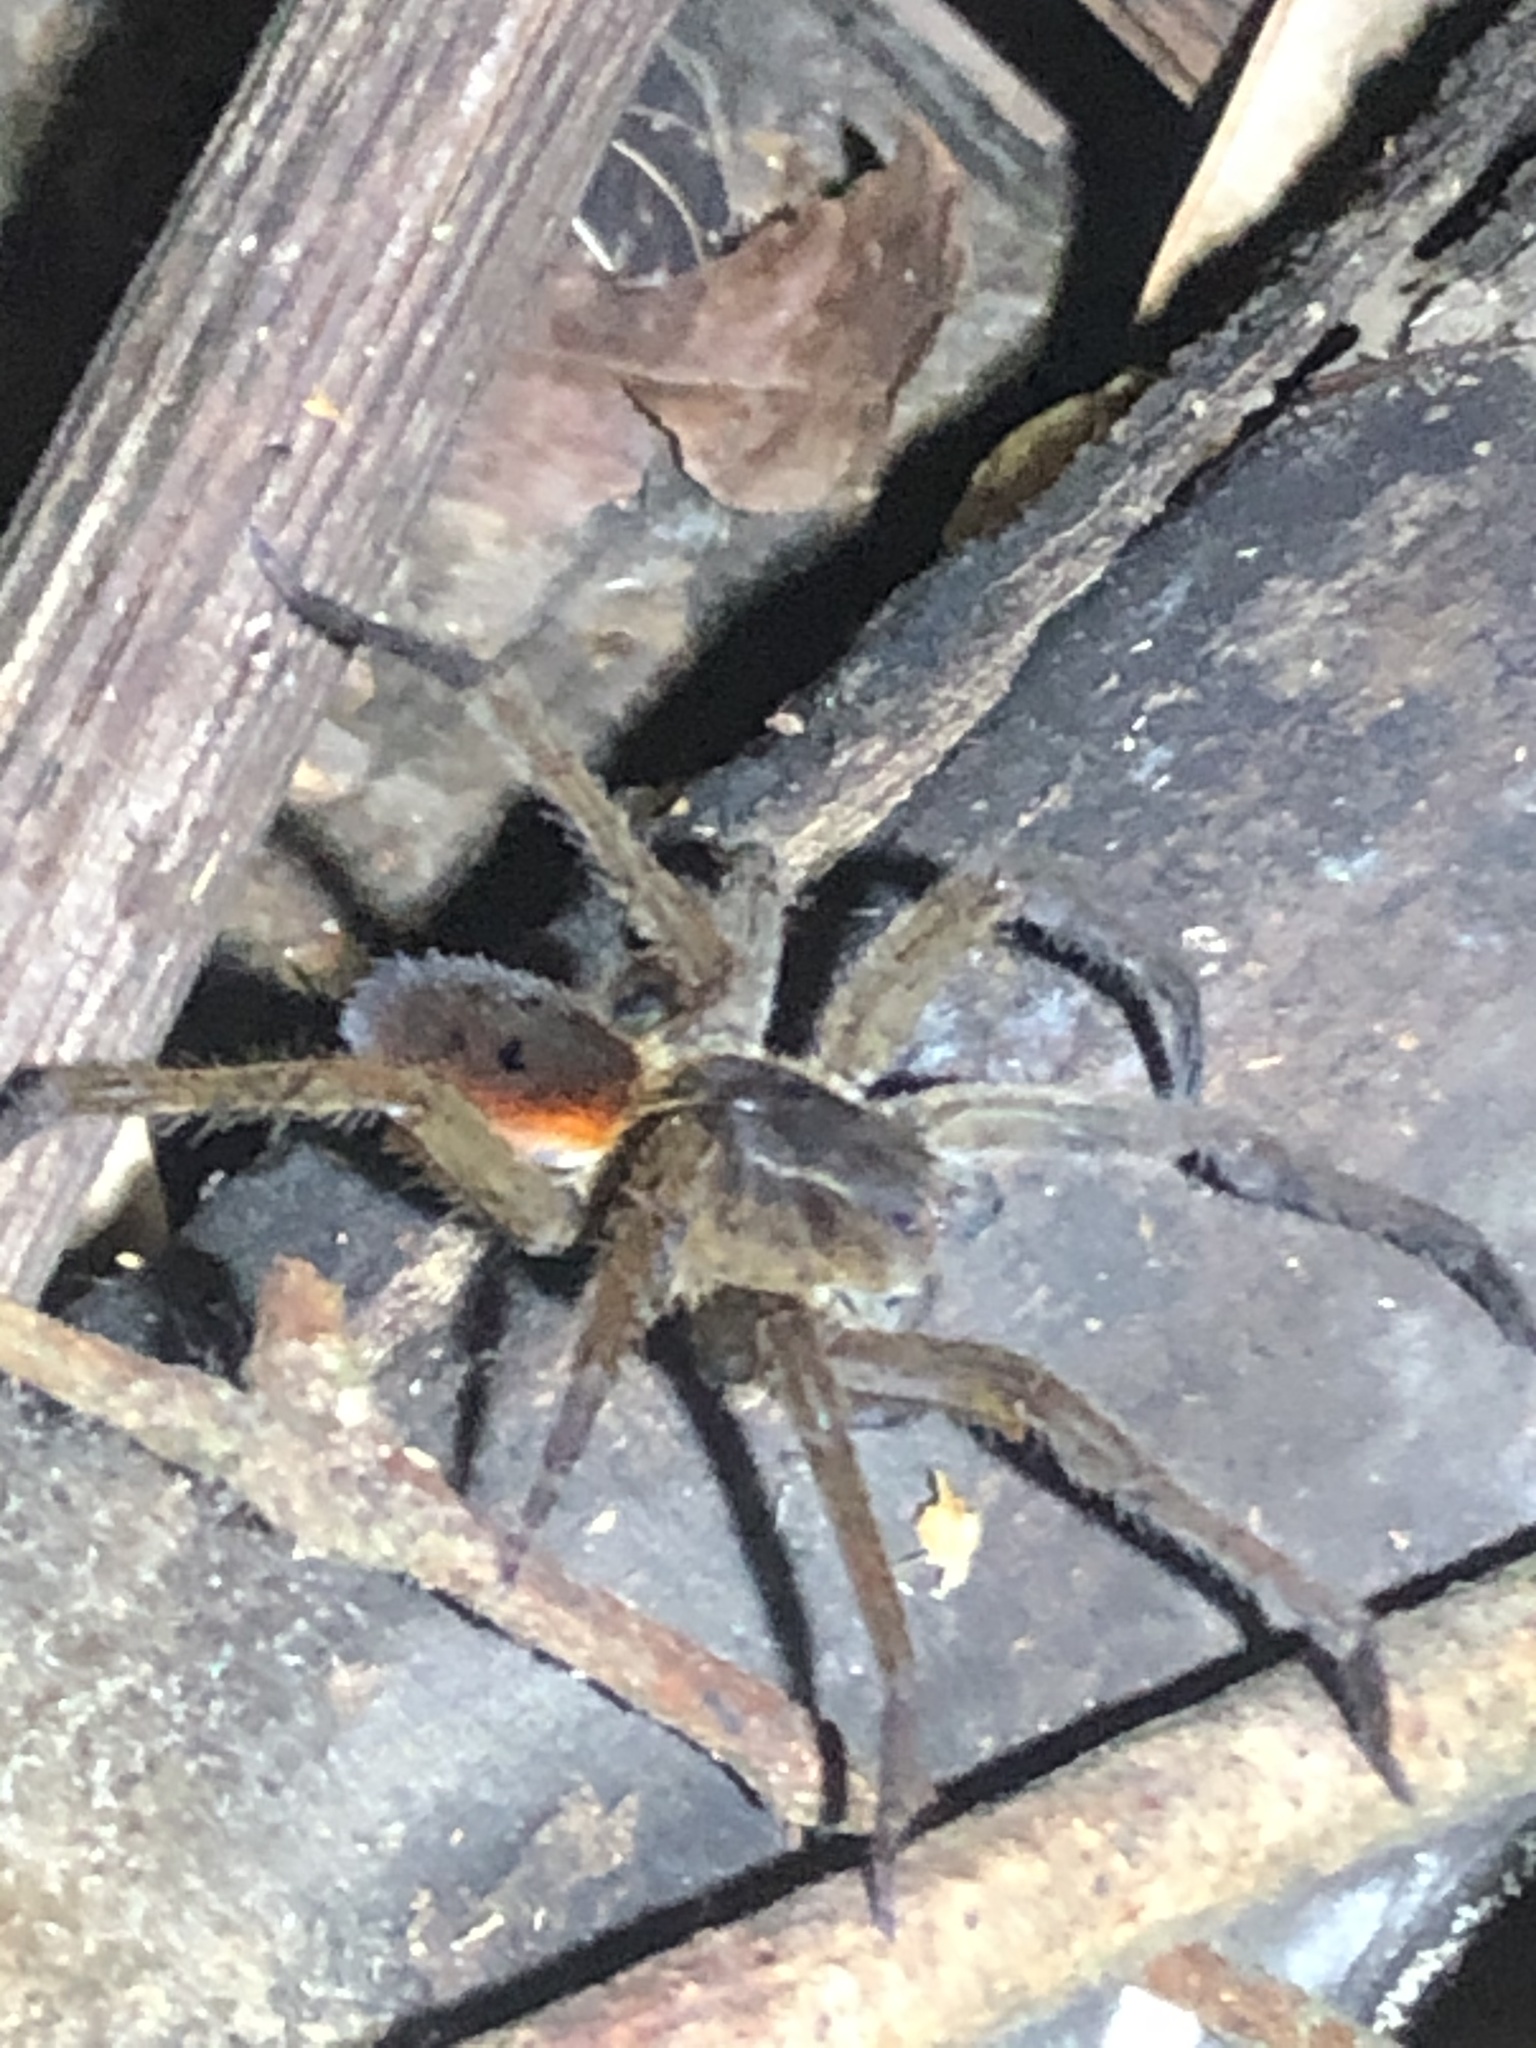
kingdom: Animalia
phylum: Arthropoda
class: Arachnida
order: Araneae
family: Ctenidae
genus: Ctenus
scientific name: Ctenus villasboasi
